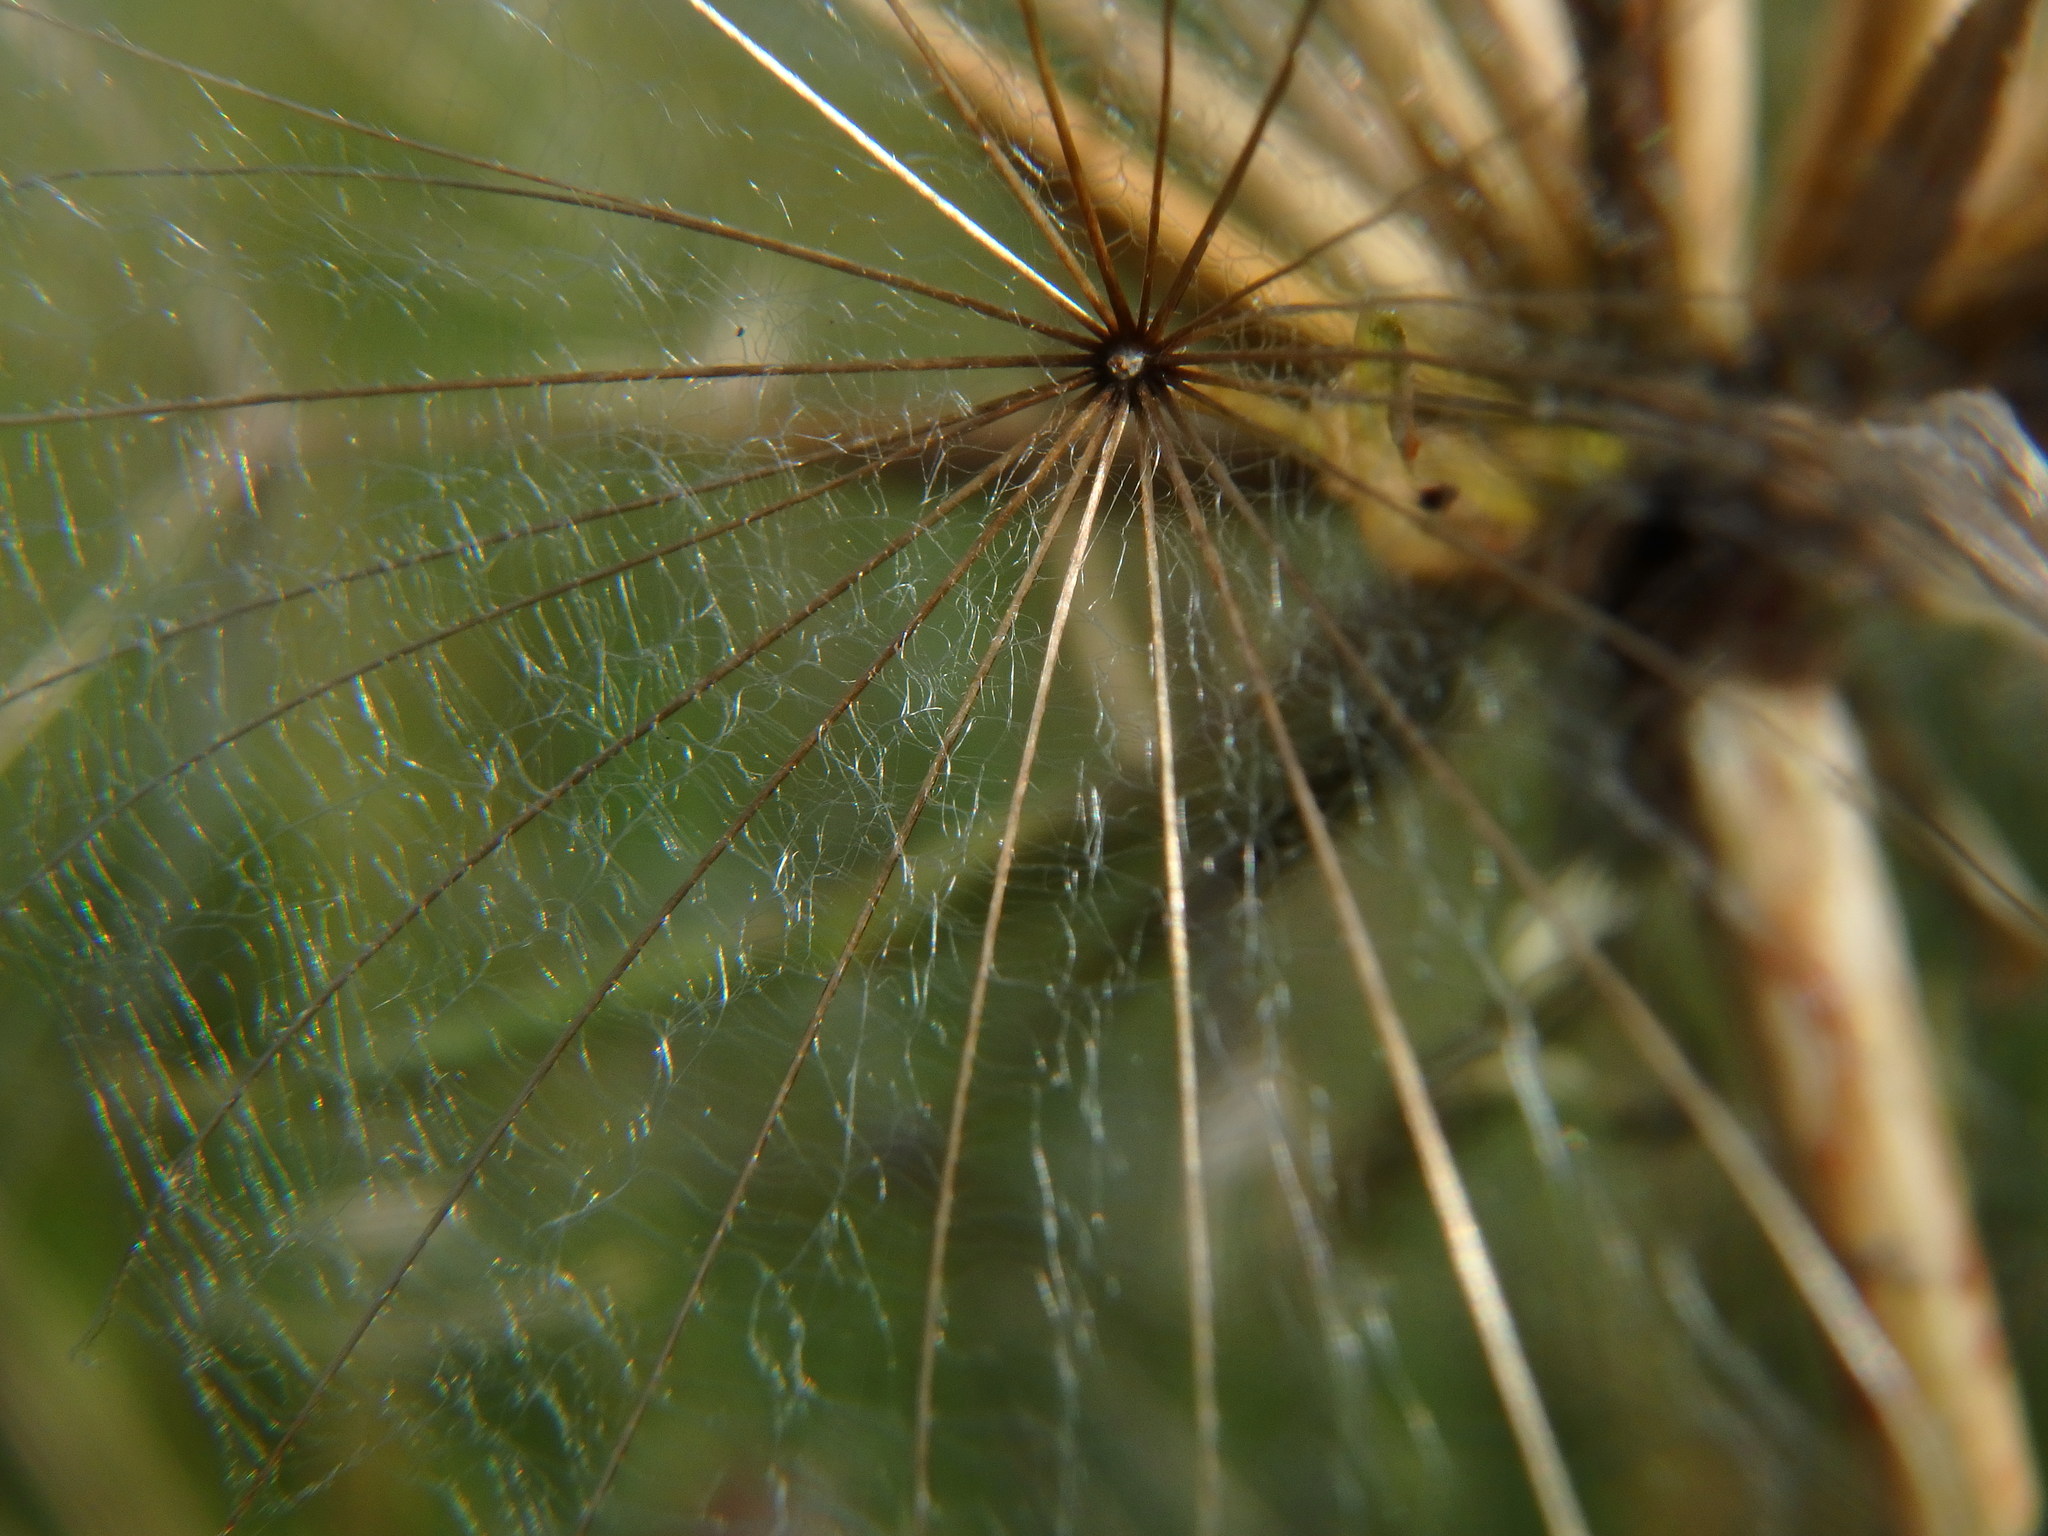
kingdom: Plantae
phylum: Tracheophyta
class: Magnoliopsida
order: Asterales
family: Asteraceae
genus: Tragopogon
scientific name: Tragopogon pratensis
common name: Goat's-beard
